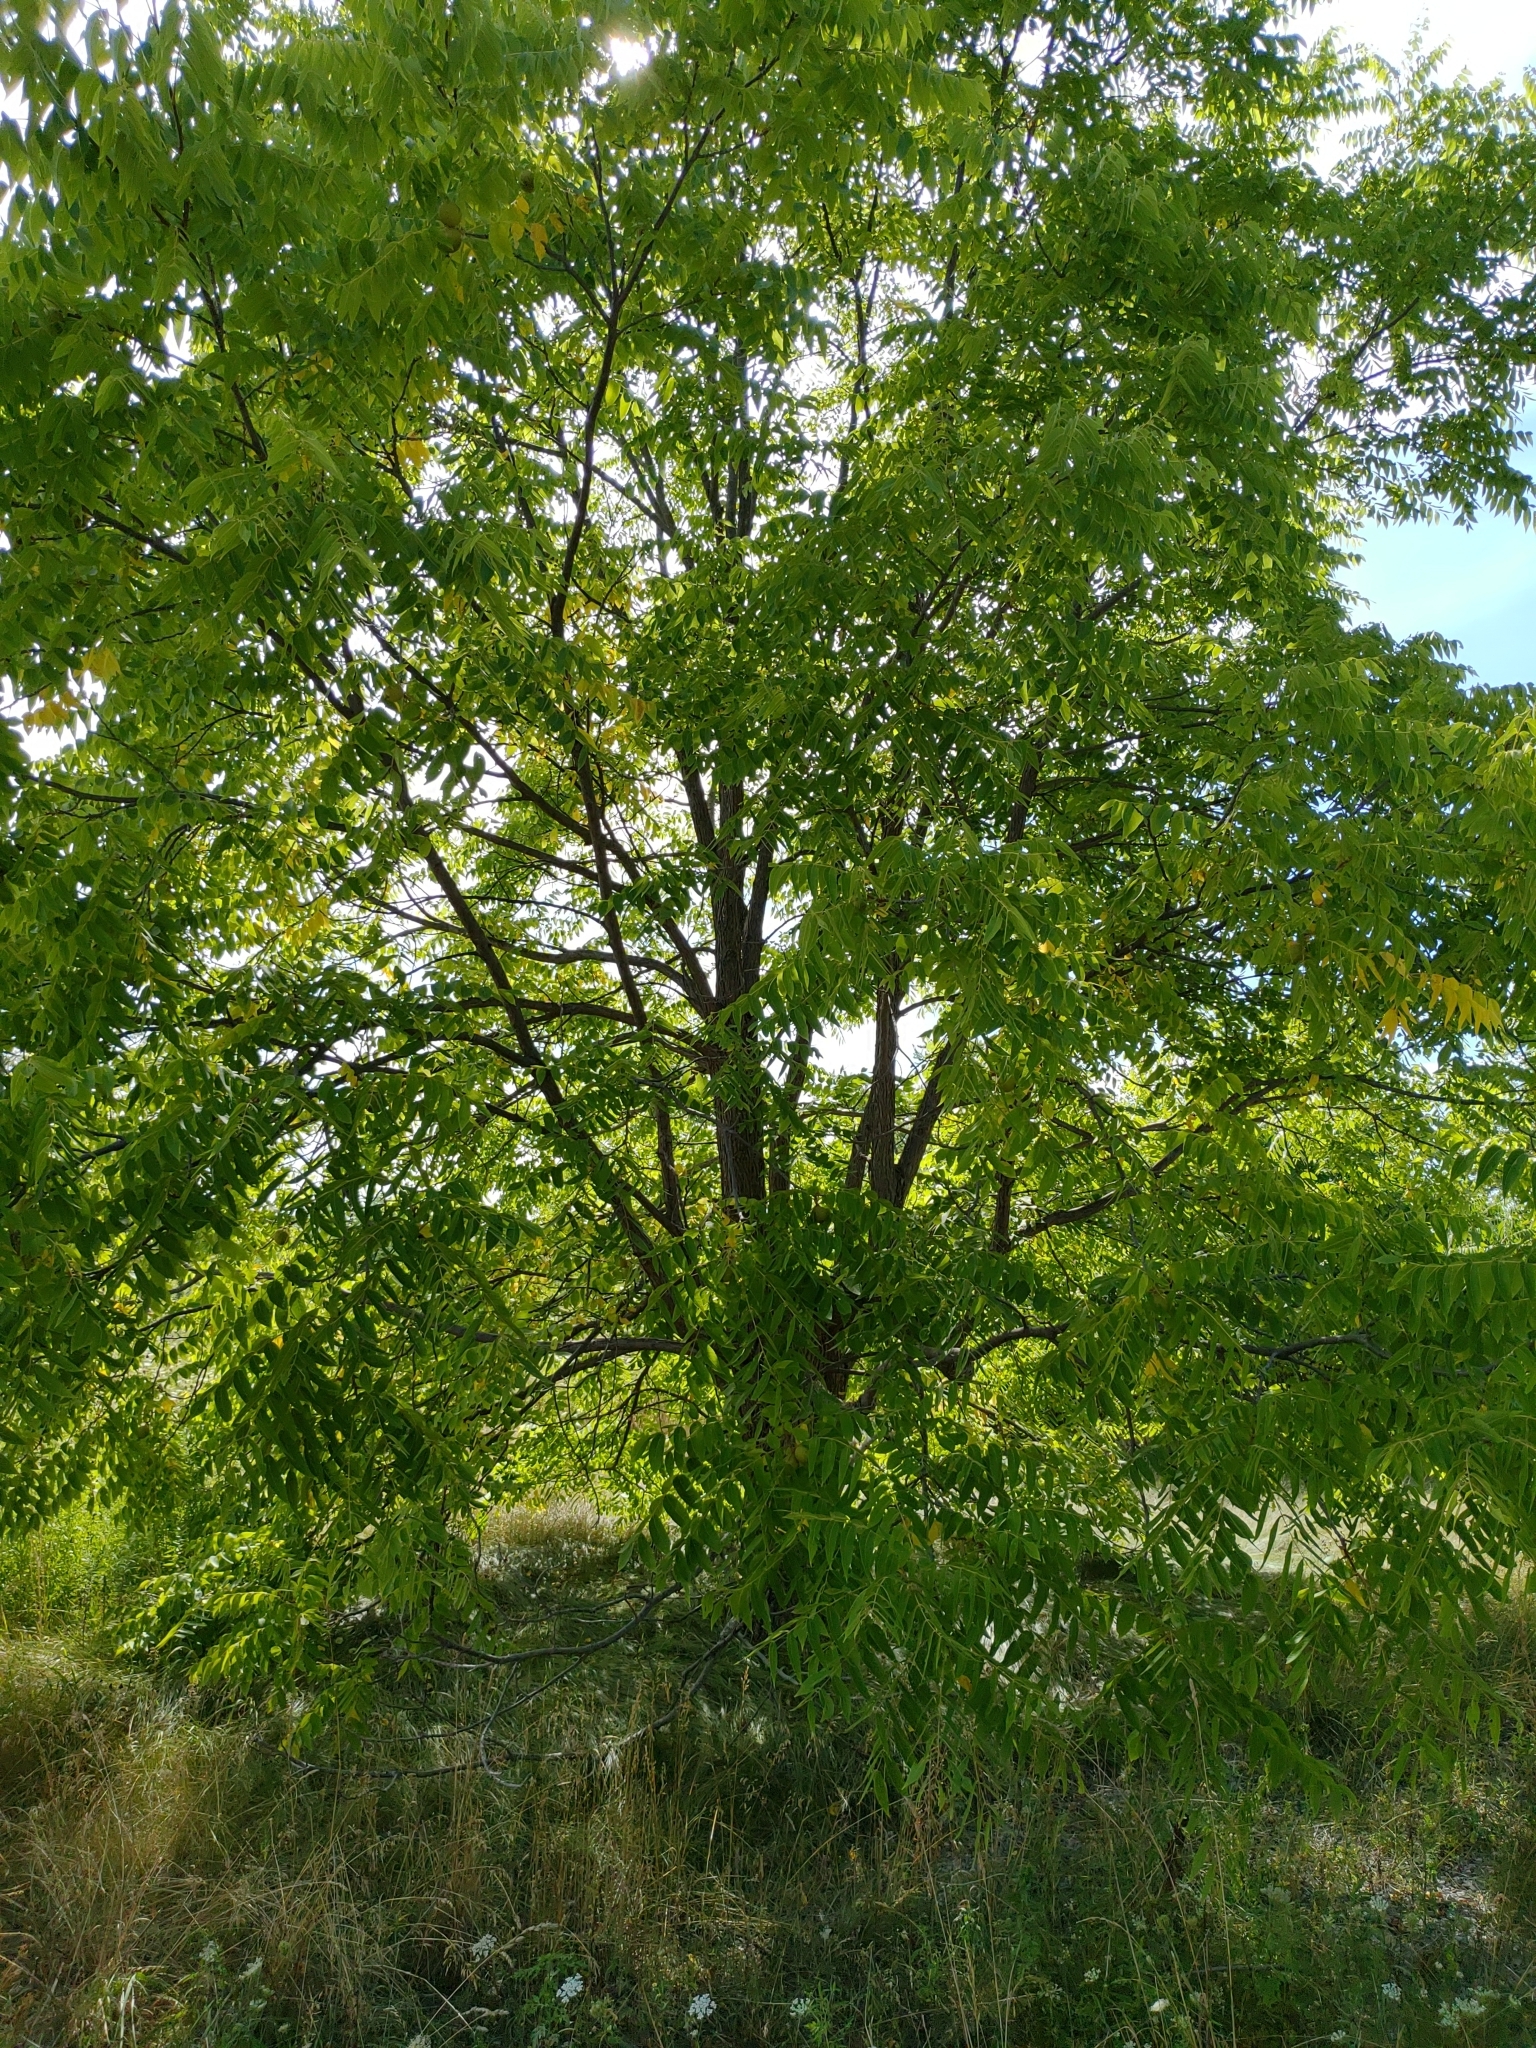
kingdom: Plantae
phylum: Tracheophyta
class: Magnoliopsida
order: Fagales
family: Juglandaceae
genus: Juglans
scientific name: Juglans nigra
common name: Black walnut
